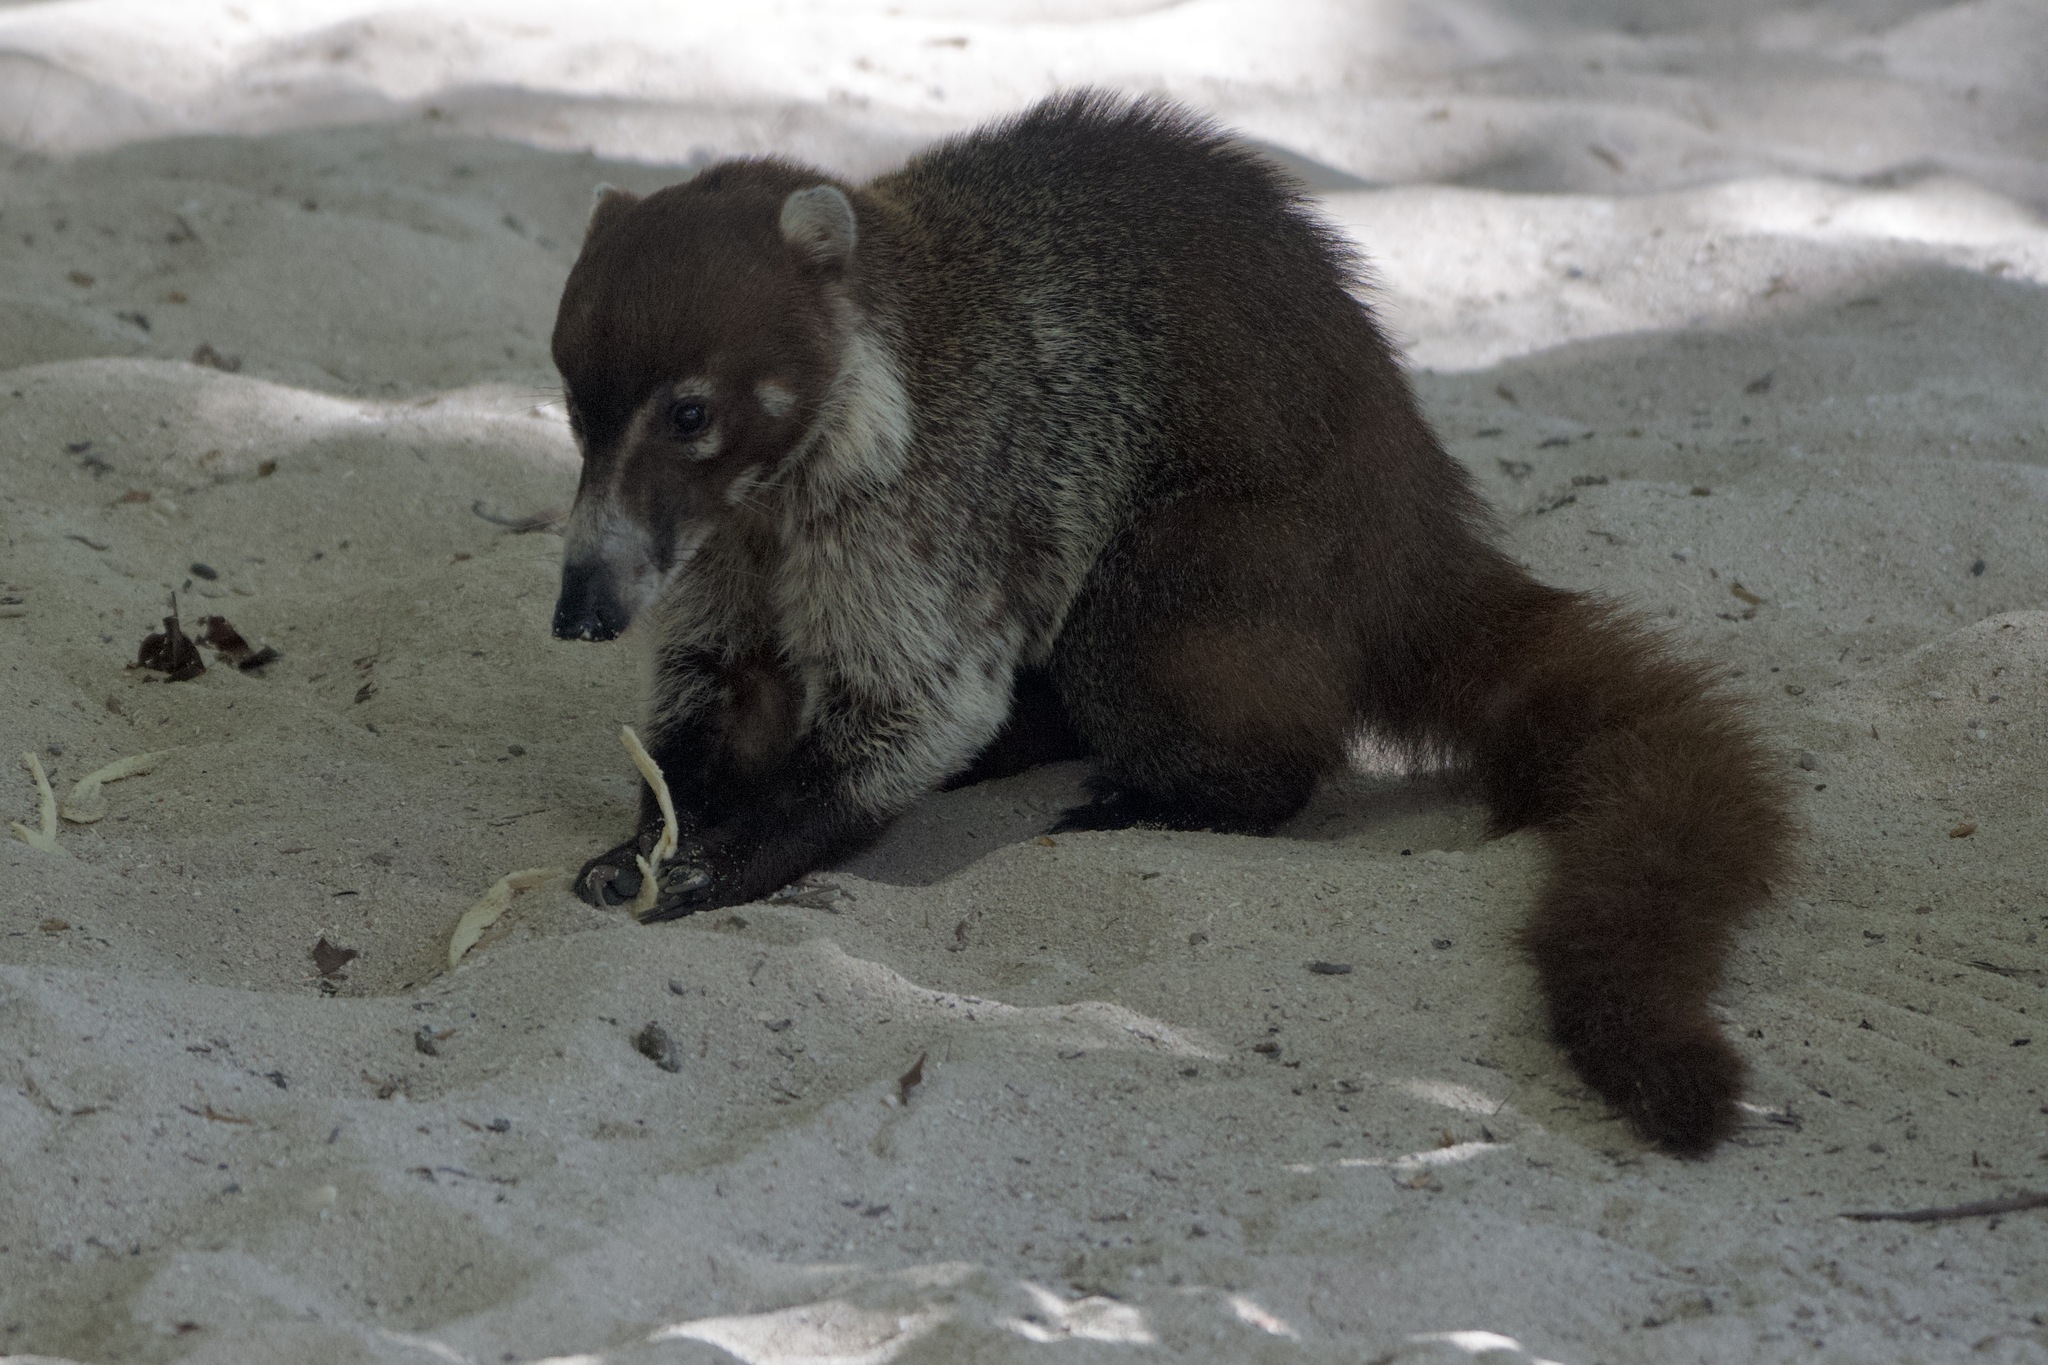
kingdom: Animalia
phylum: Chordata
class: Mammalia
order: Carnivora
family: Procyonidae
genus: Nasua
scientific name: Nasua narica
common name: White-nosed coati
